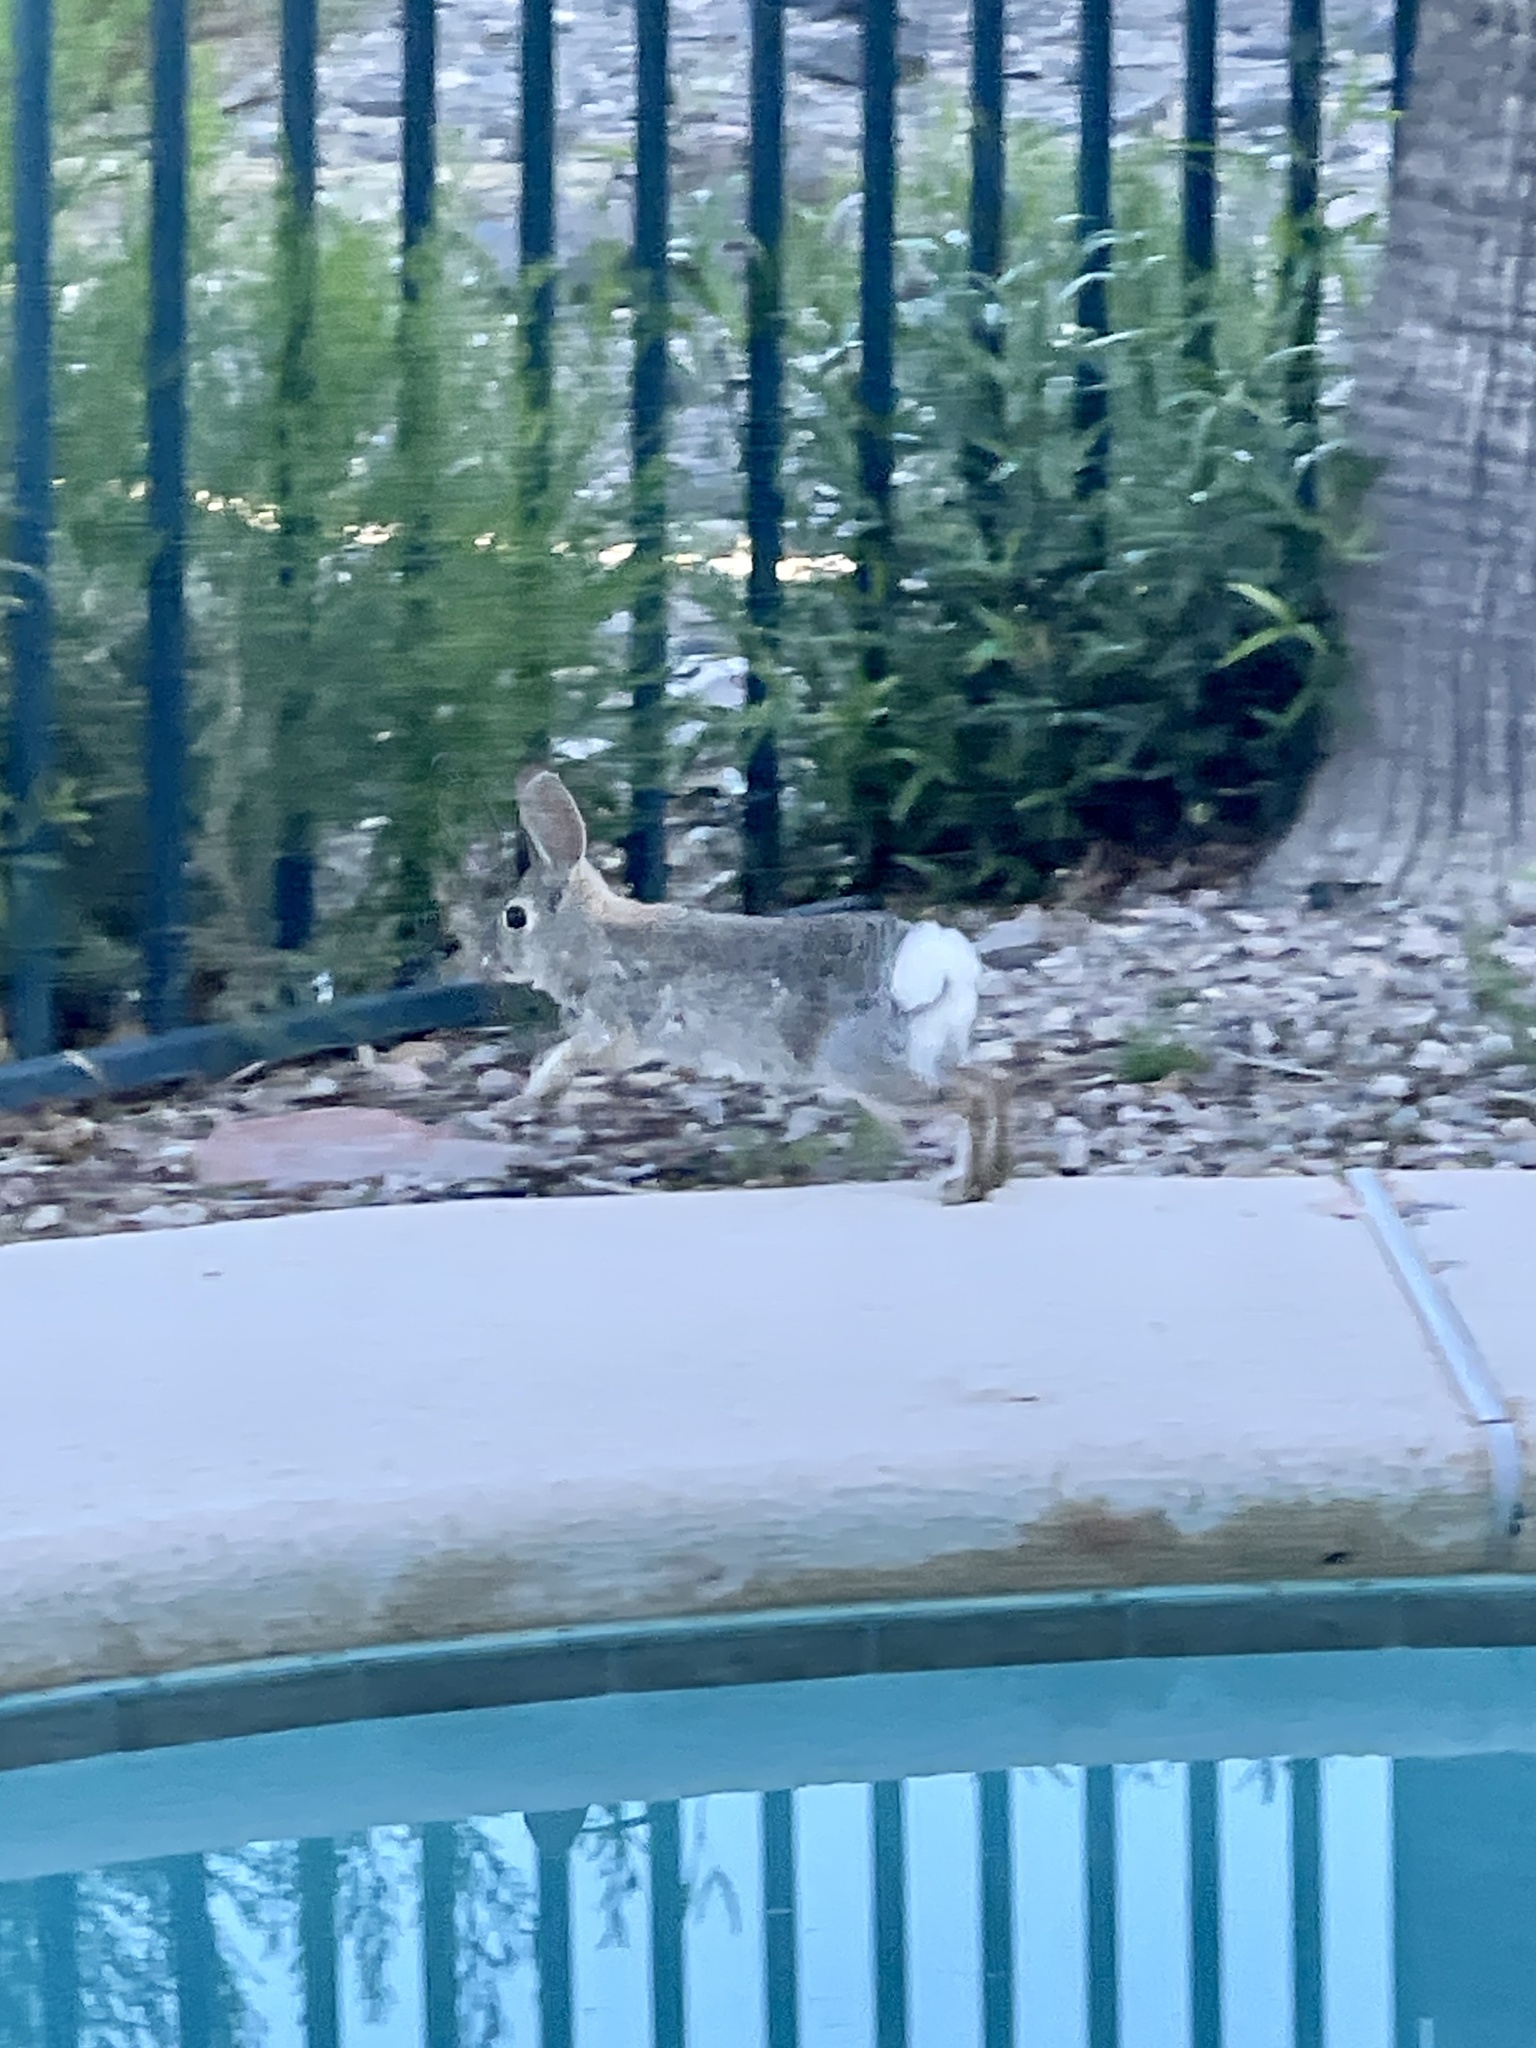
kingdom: Animalia
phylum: Chordata
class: Mammalia
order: Lagomorpha
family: Leporidae
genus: Sylvilagus
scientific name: Sylvilagus audubonii
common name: Desert cottontail
